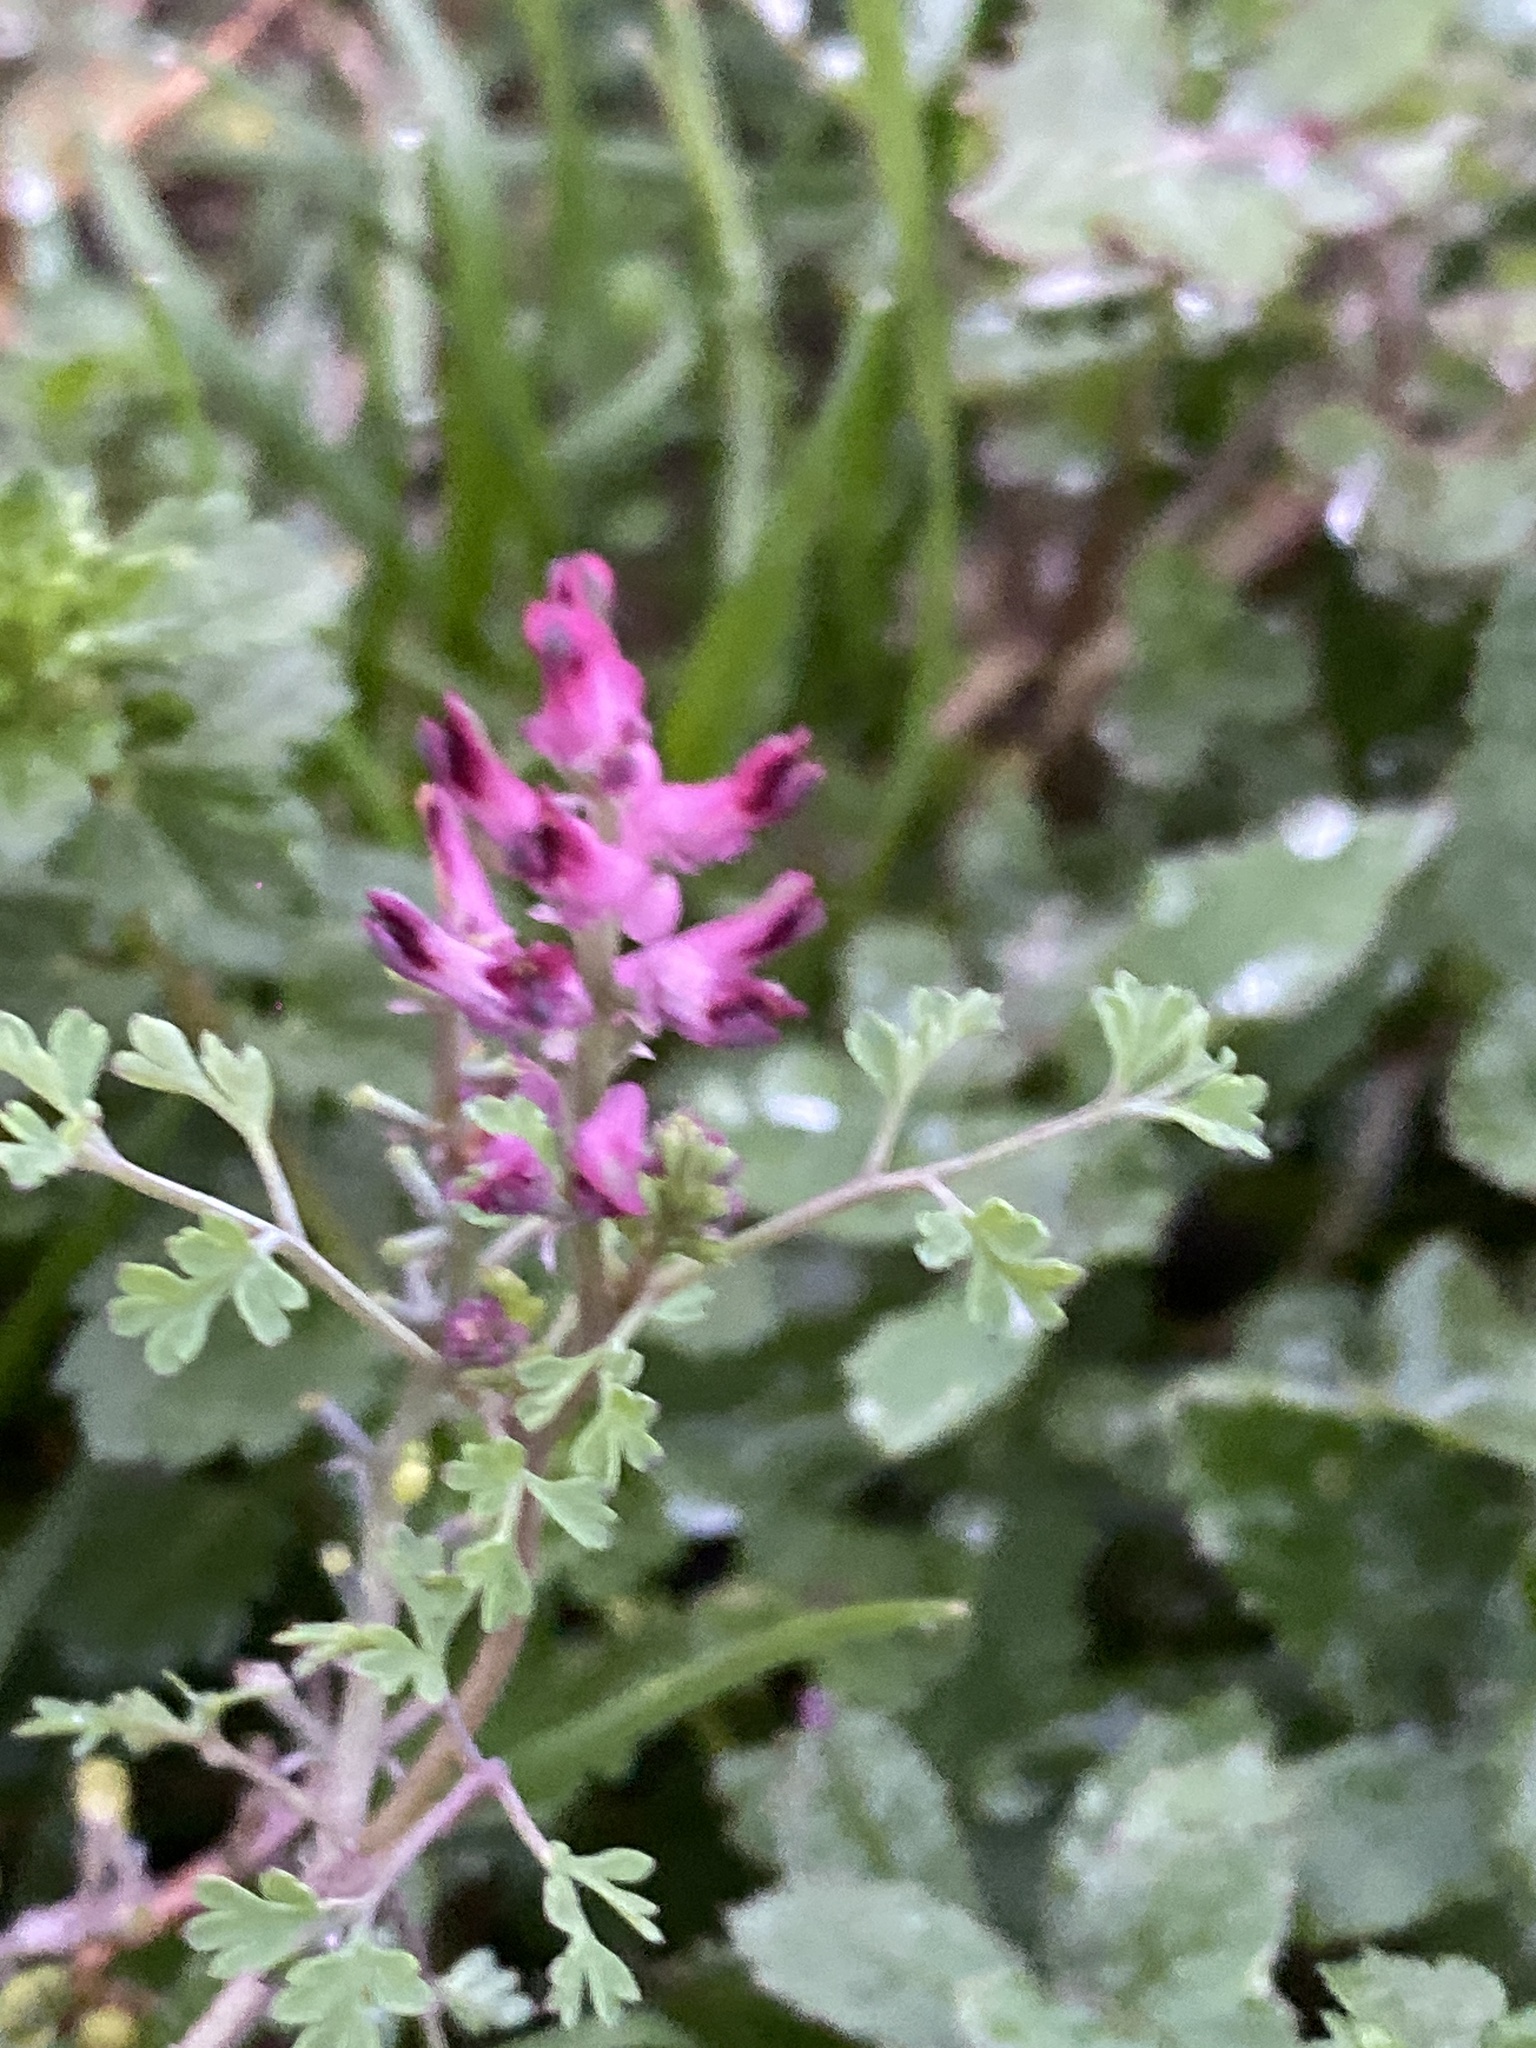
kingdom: Plantae
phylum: Tracheophyta
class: Magnoliopsida
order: Ranunculales
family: Papaveraceae
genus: Fumaria
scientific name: Fumaria officinalis
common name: Common fumitory
